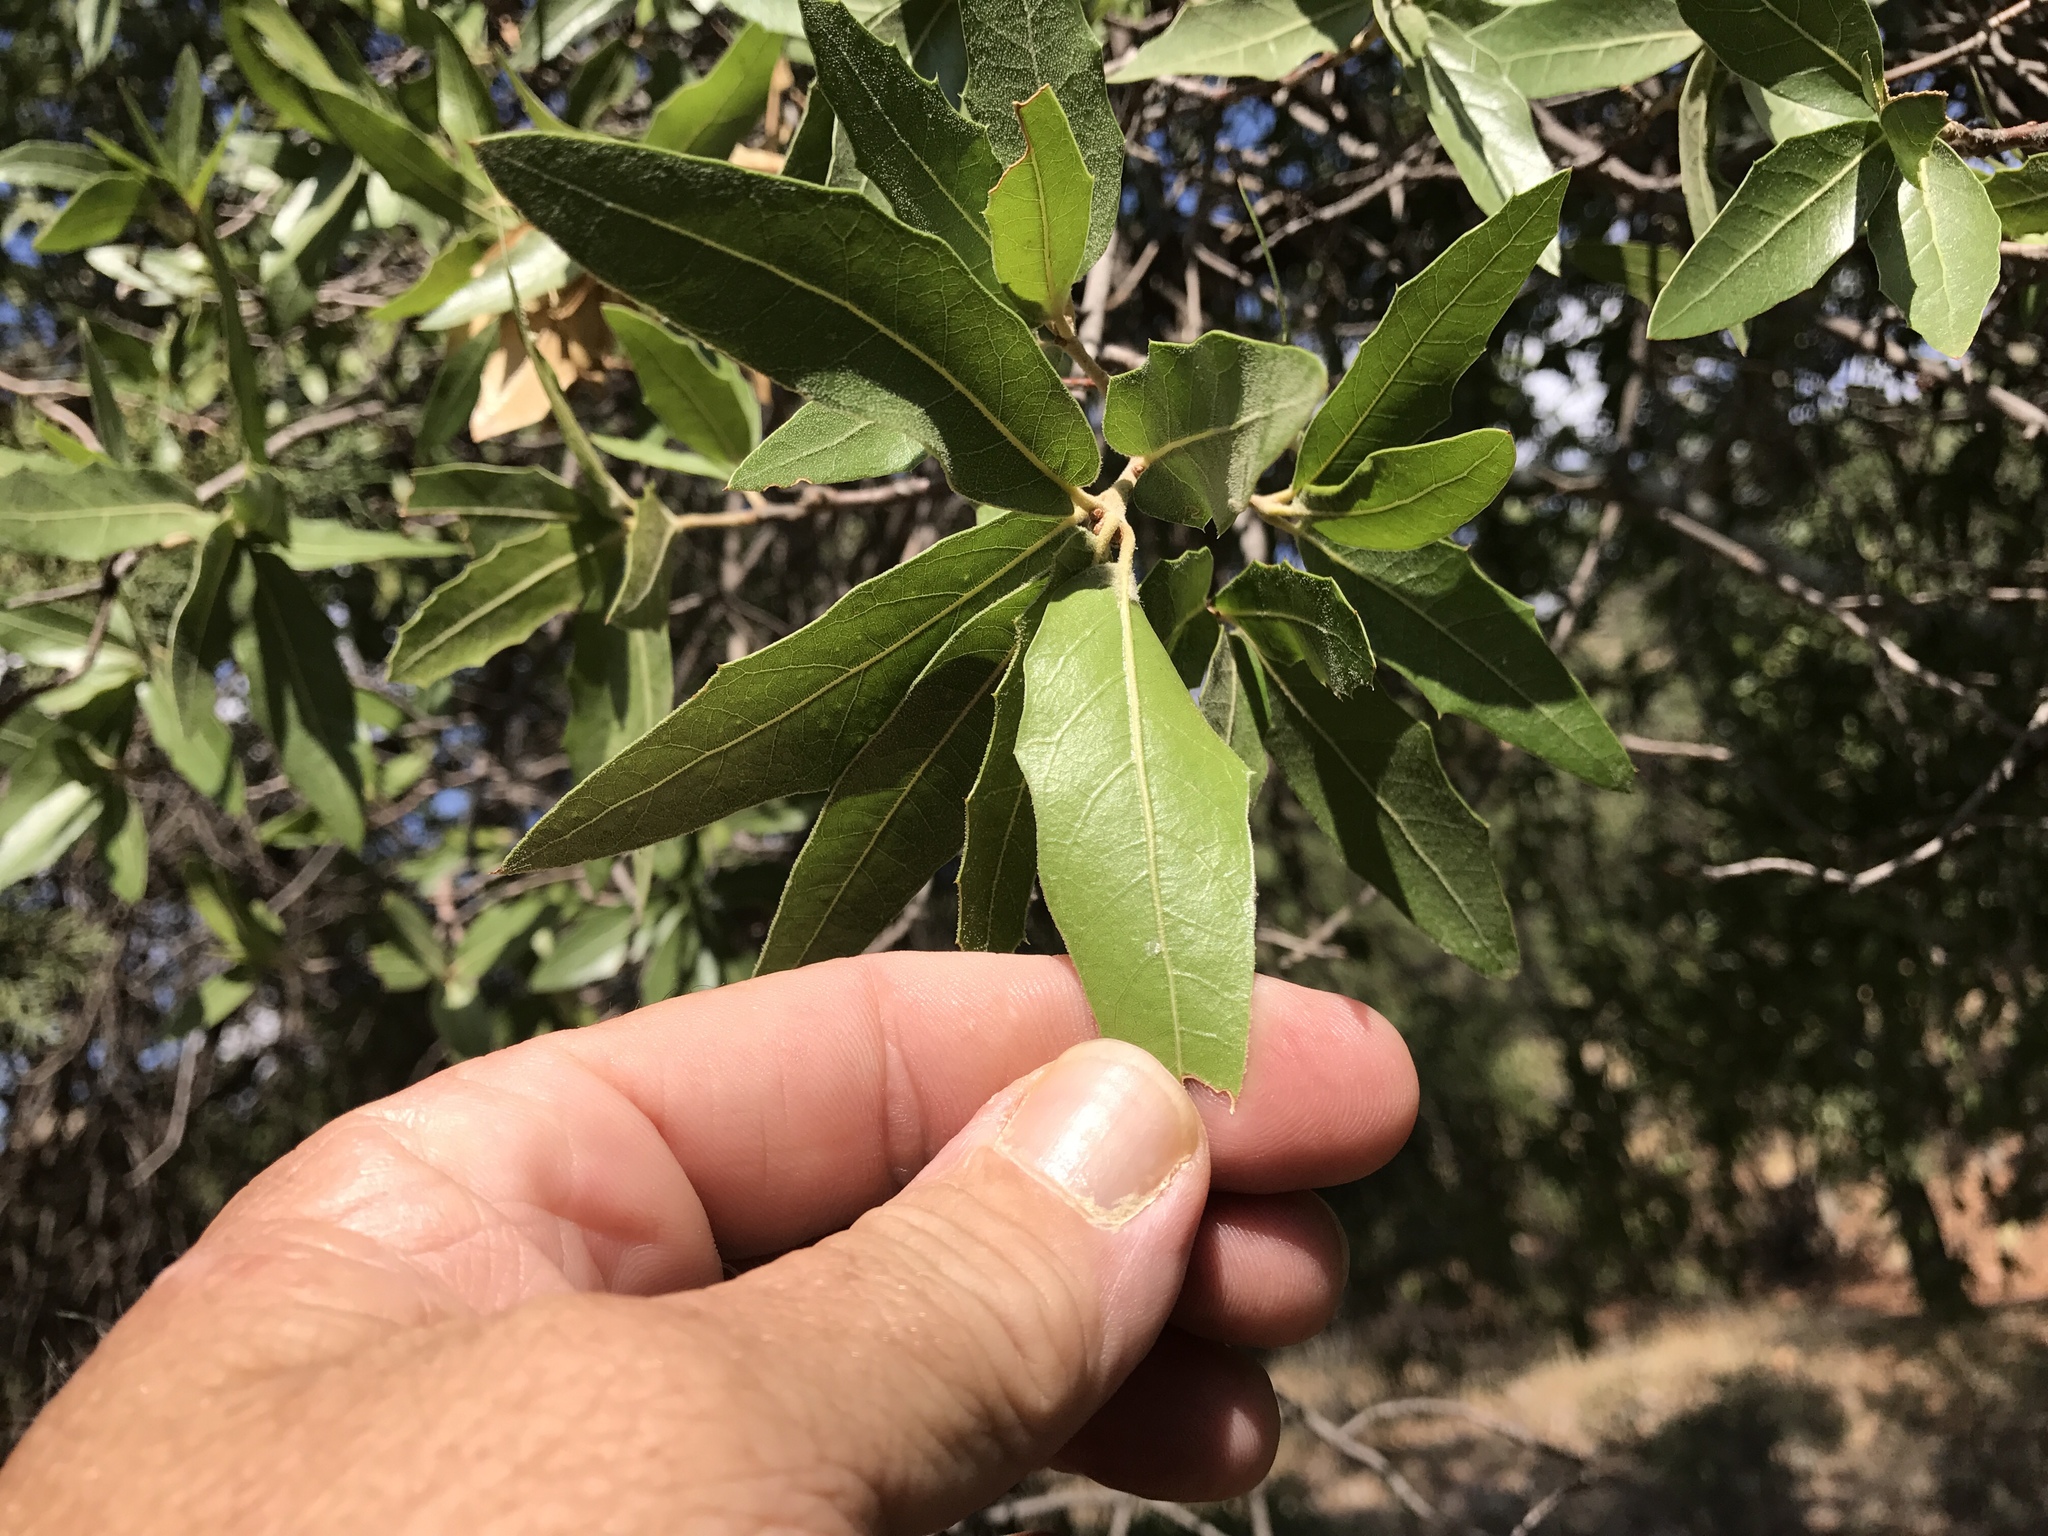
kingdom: Plantae
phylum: Tracheophyta
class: Magnoliopsida
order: Fagales
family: Fagaceae
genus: Quercus
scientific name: Quercus emoryi
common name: Emory oak
